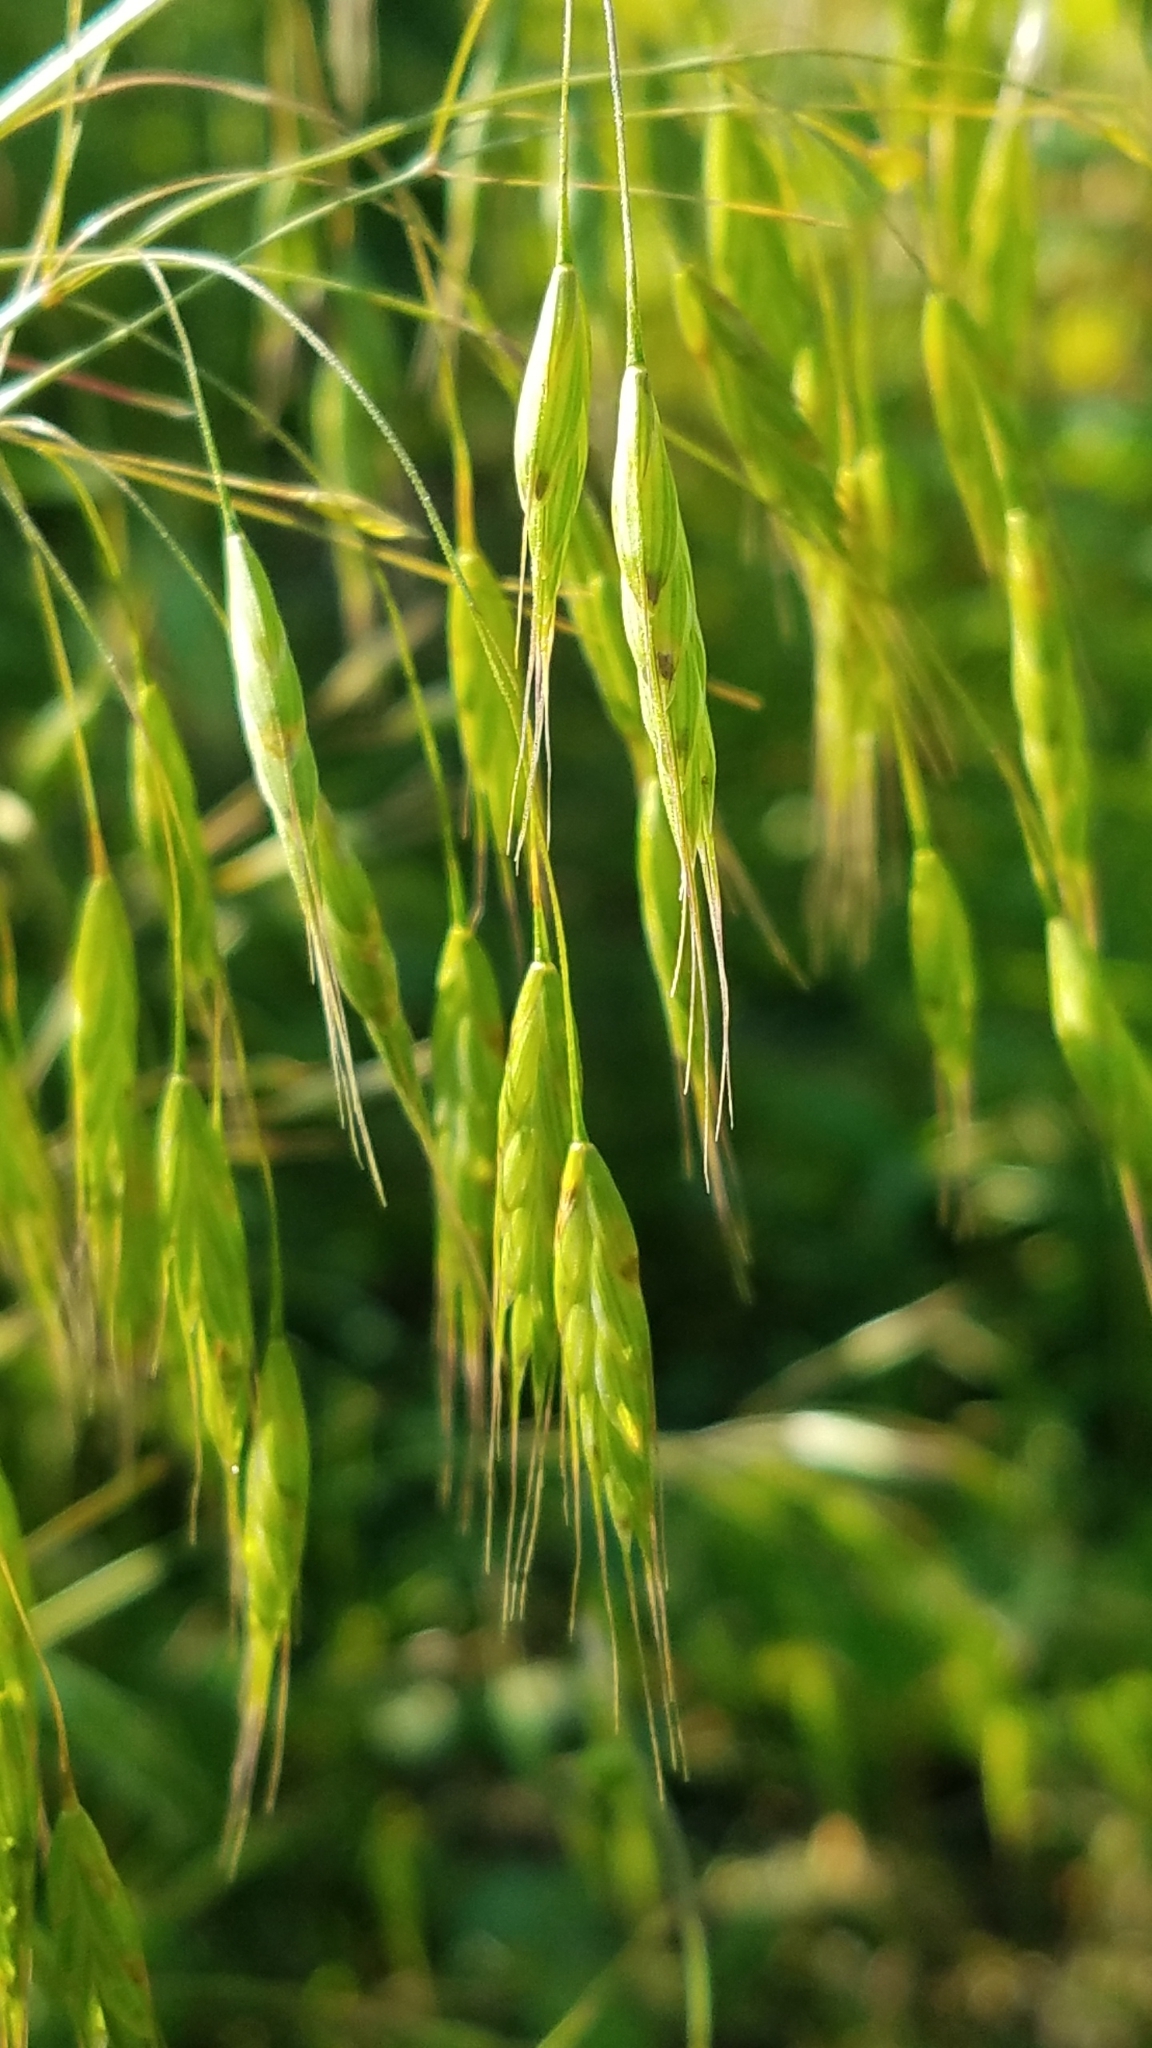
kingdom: Plantae
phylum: Tracheophyta
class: Liliopsida
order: Poales
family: Poaceae
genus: Bromus
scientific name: Bromus hordeaceus
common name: Soft brome
